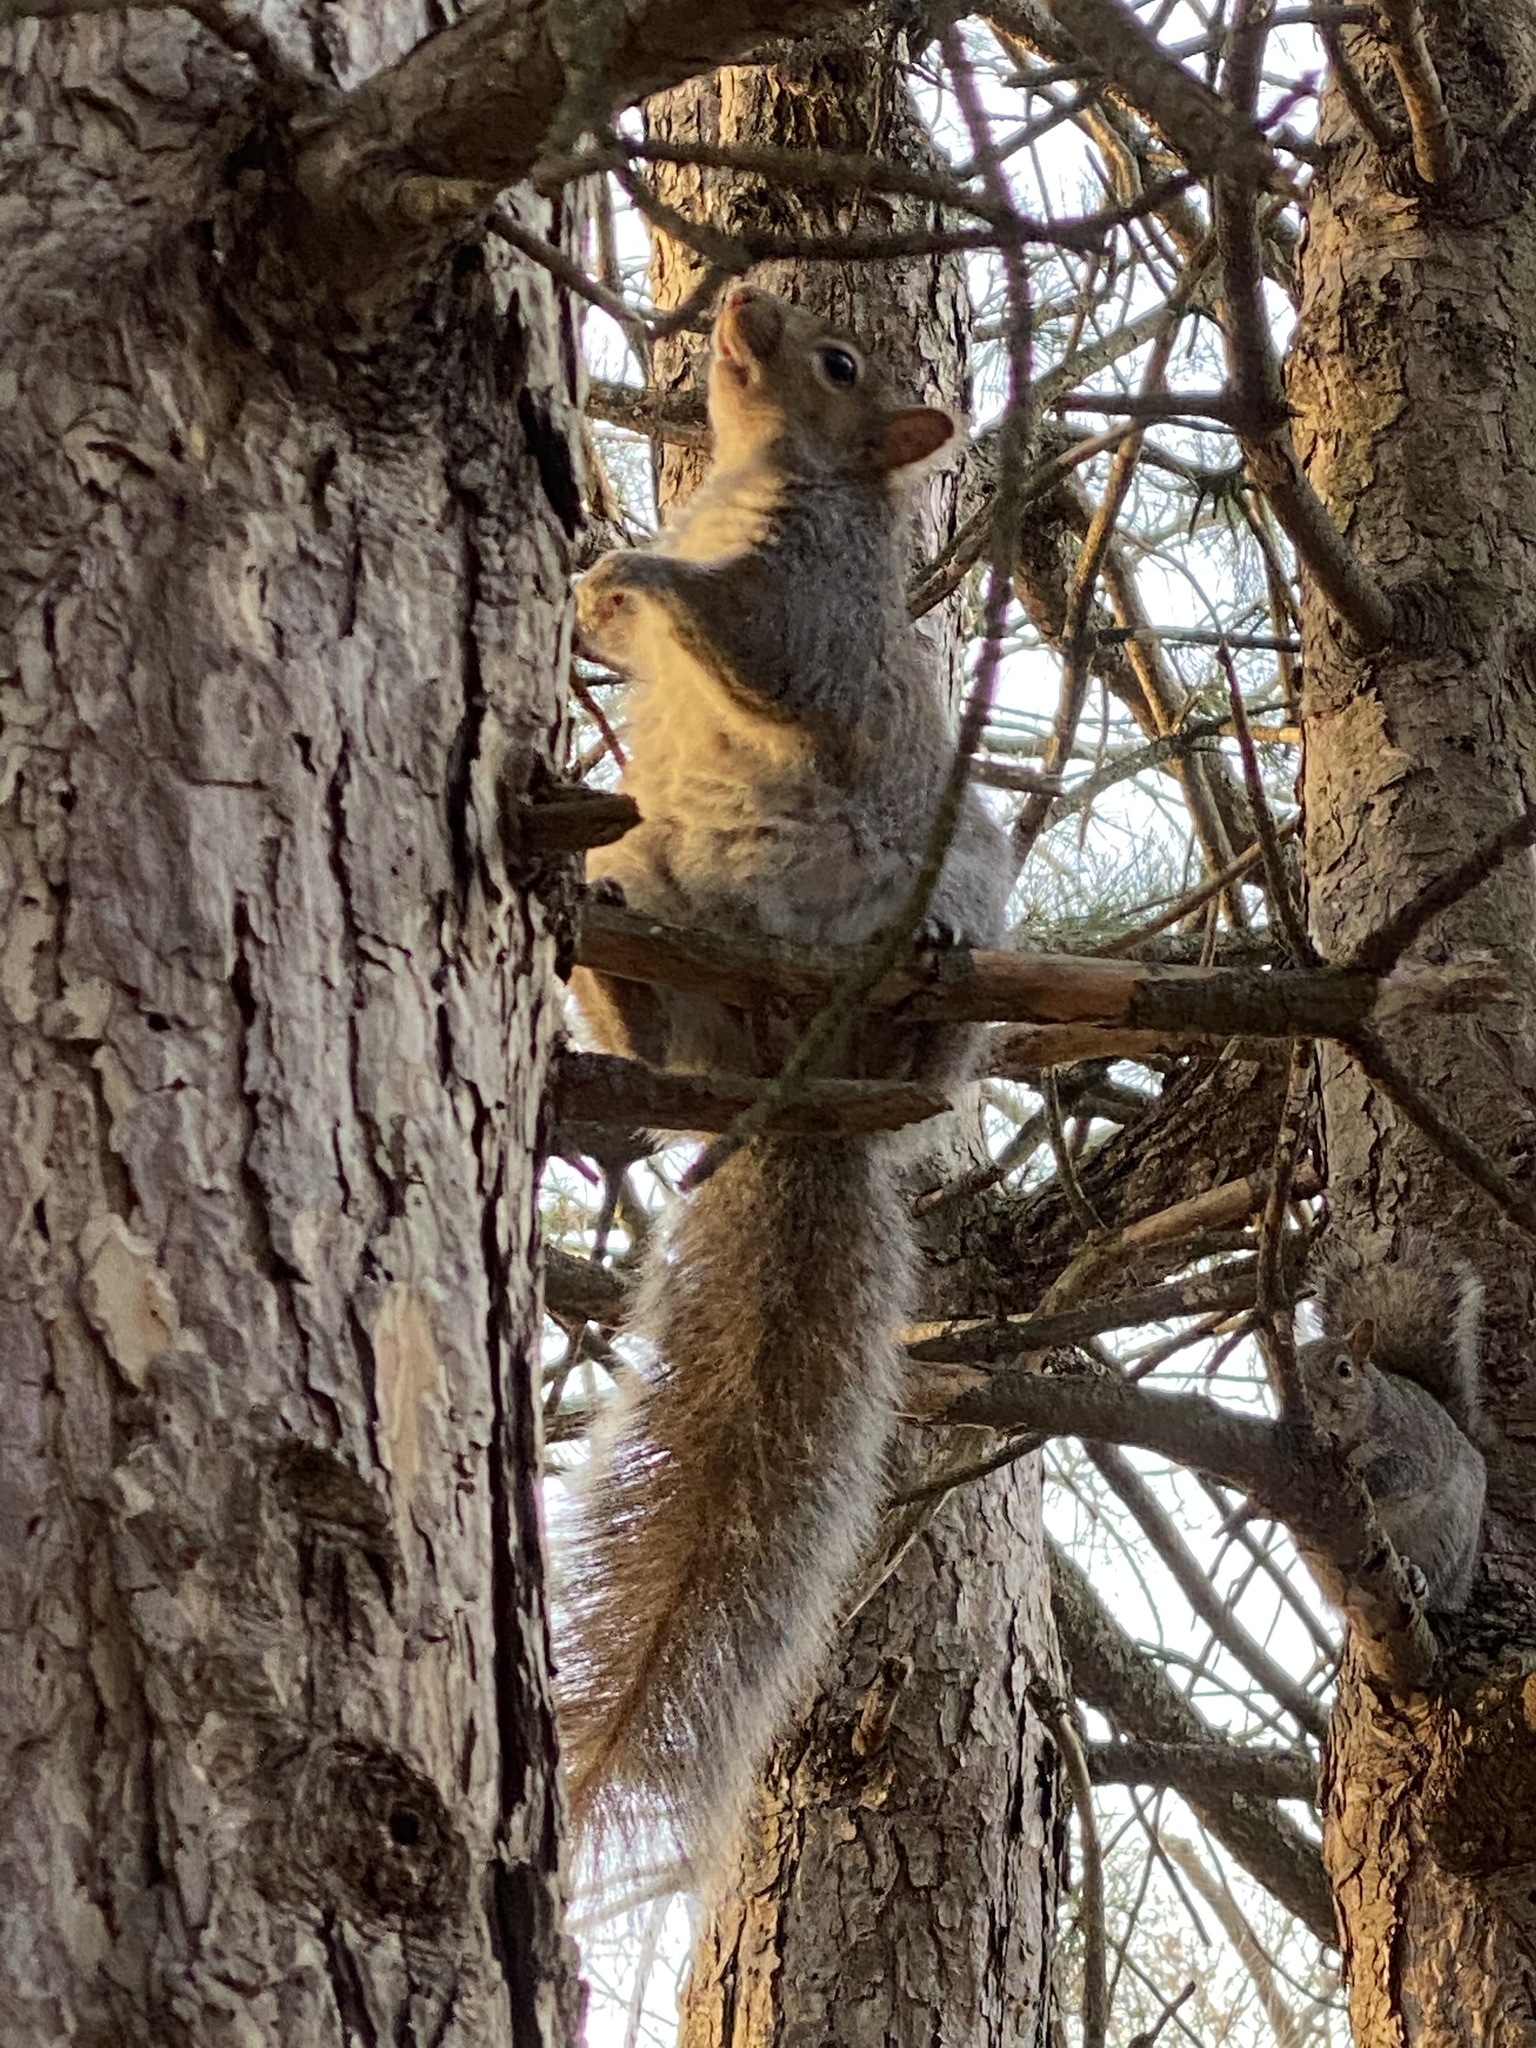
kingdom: Animalia
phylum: Chordata
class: Mammalia
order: Rodentia
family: Sciuridae
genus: Sciurus
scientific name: Sciurus carolinensis
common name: Eastern gray squirrel
